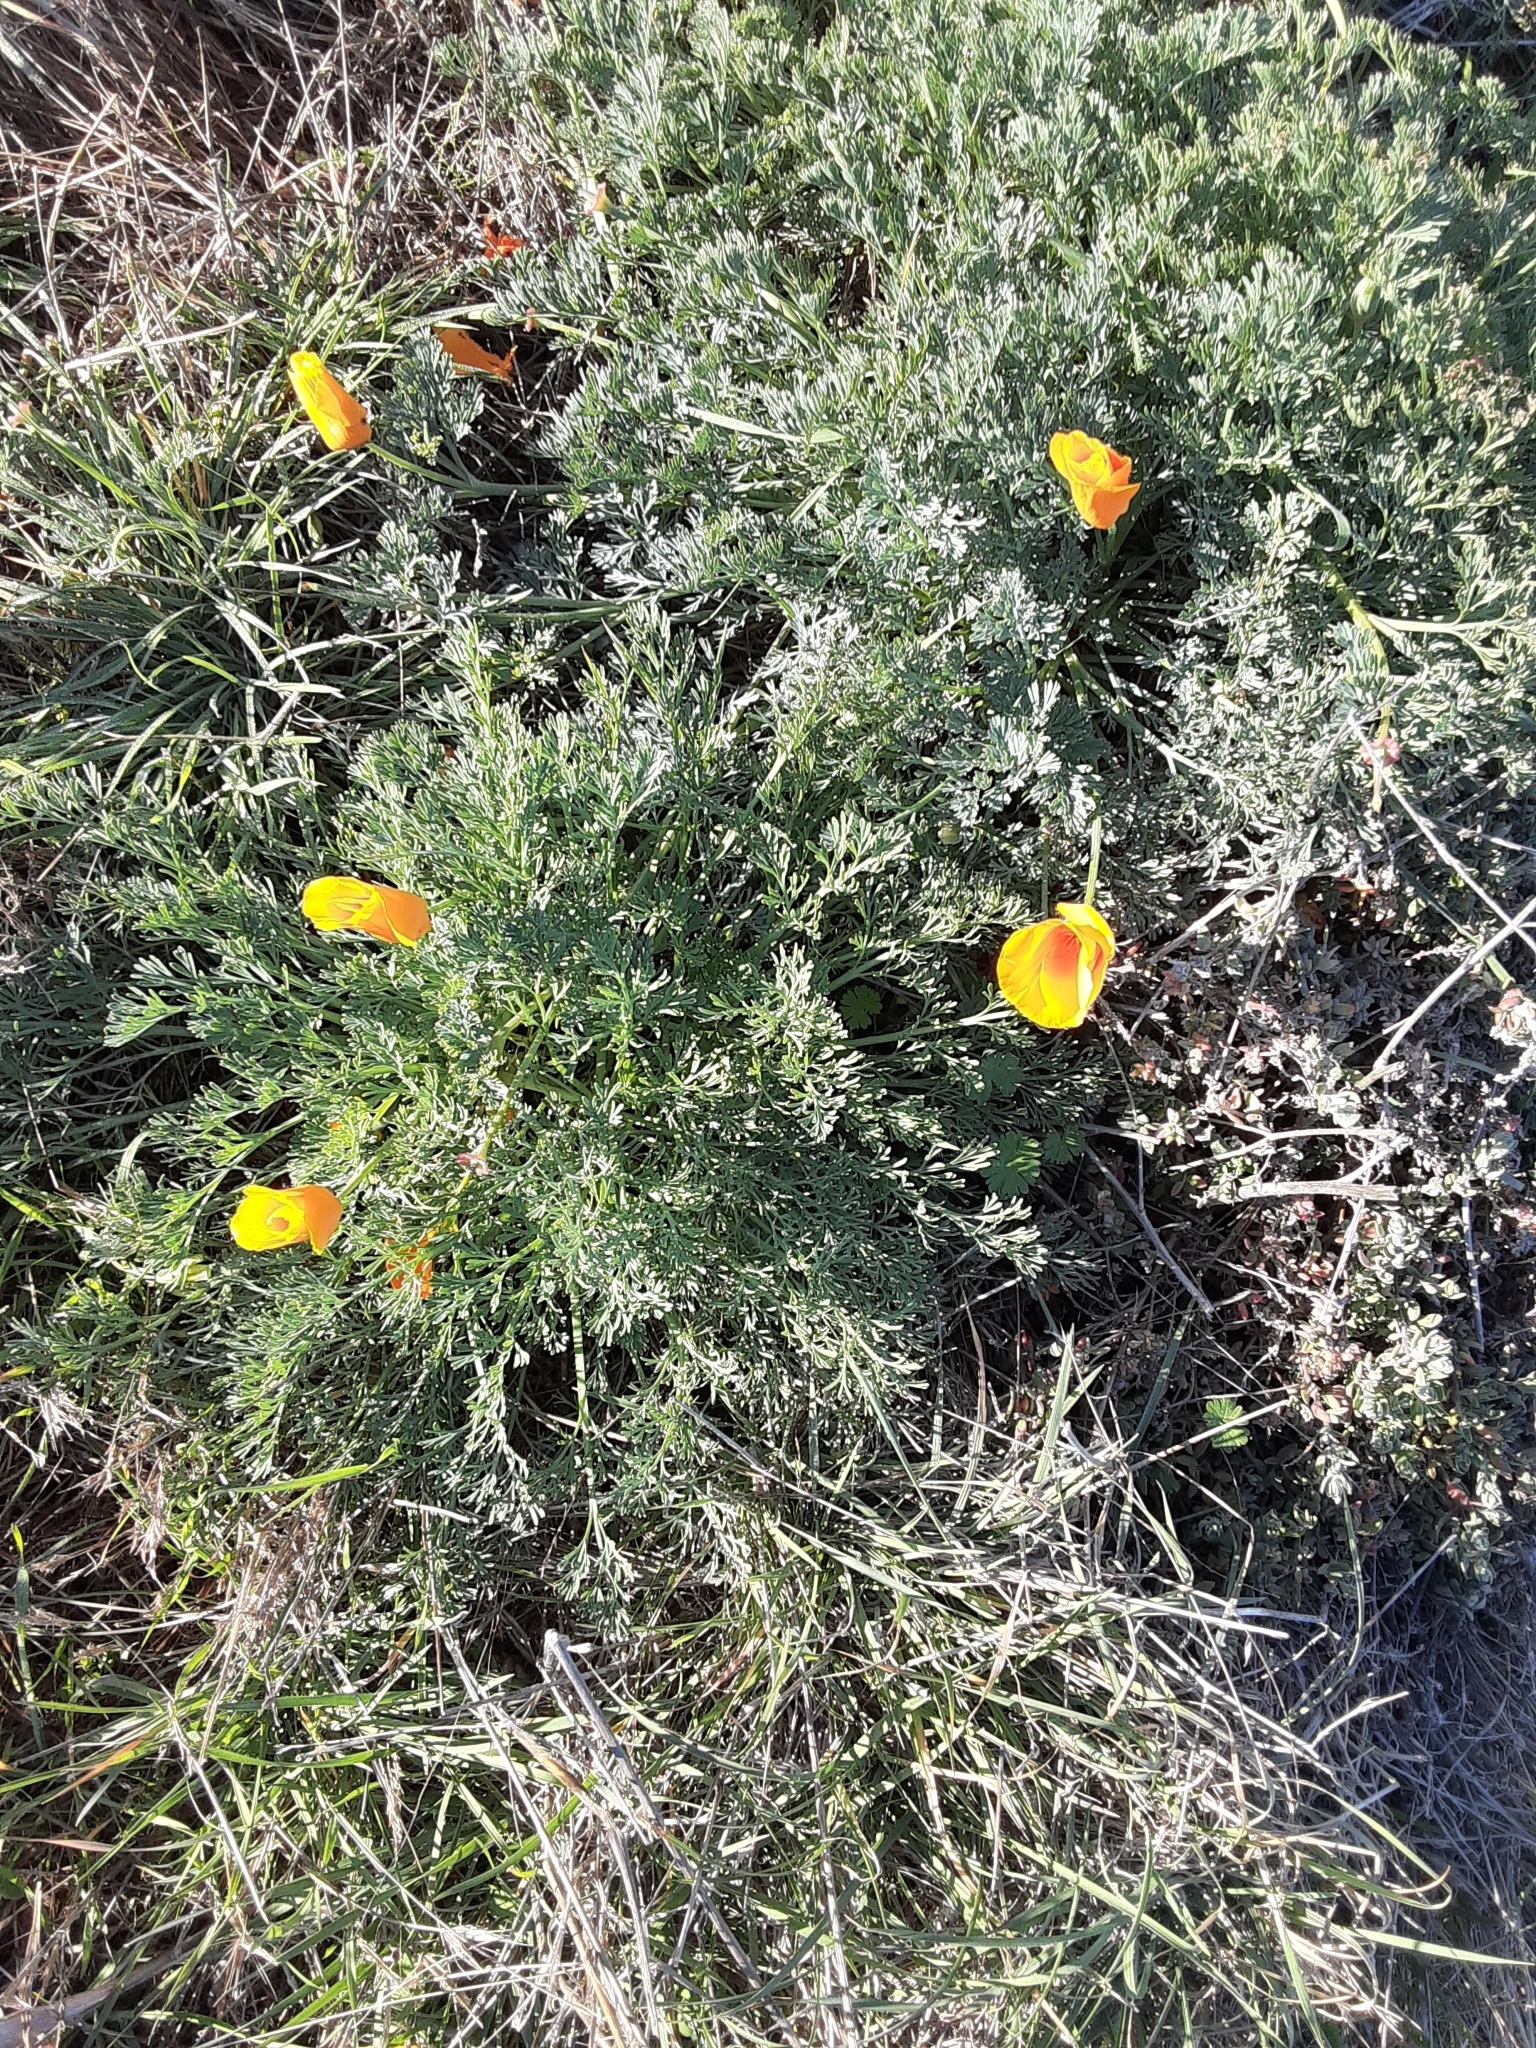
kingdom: Plantae
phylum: Tracheophyta
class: Magnoliopsida
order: Ranunculales
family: Papaveraceae
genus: Eschscholzia
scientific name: Eschscholzia californica
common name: California poppy
